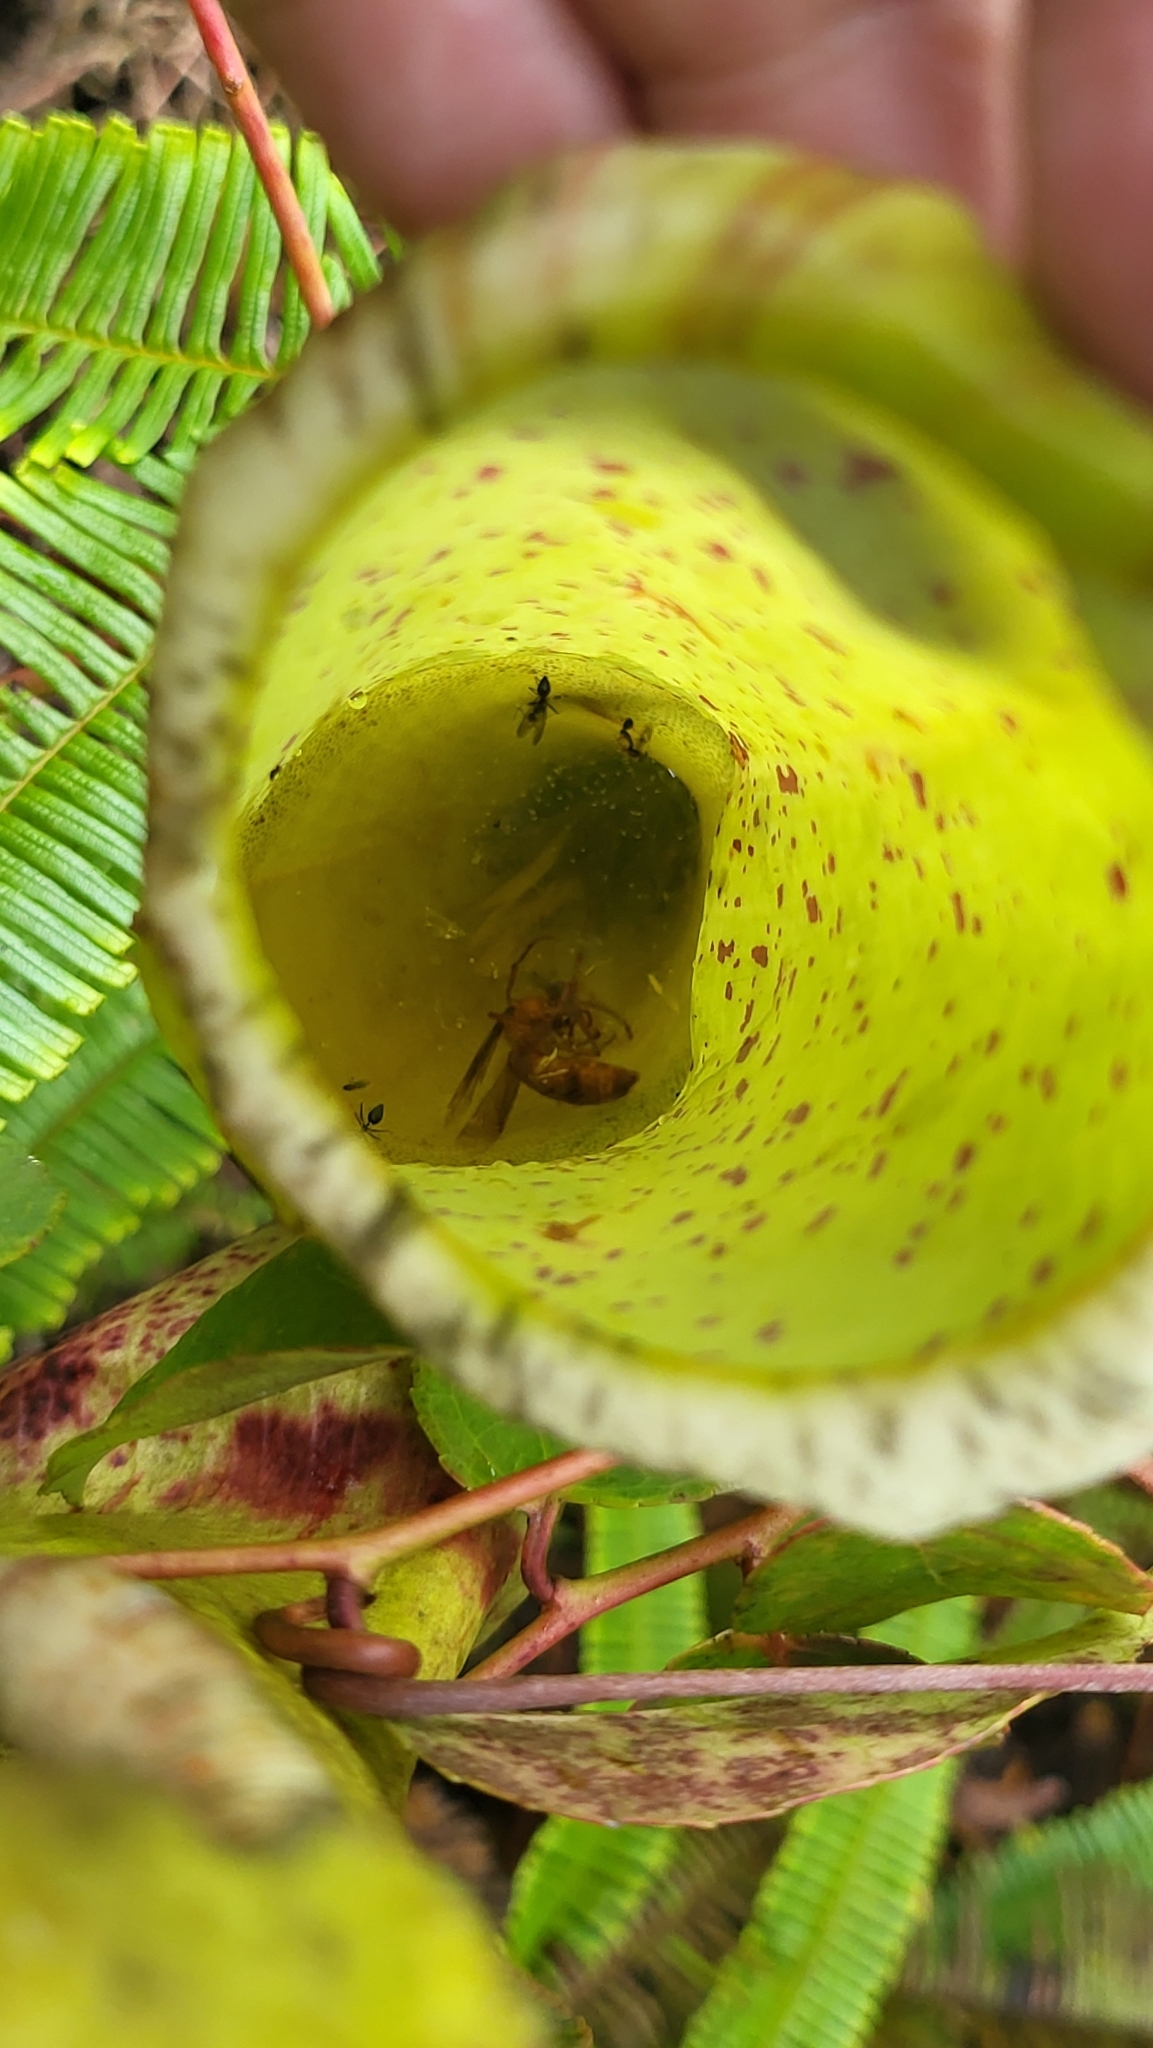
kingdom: Plantae
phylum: Tracheophyta
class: Magnoliopsida
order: Caryophyllales
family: Nepenthaceae
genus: Nepenthes
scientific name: Nepenthes sanguinea
